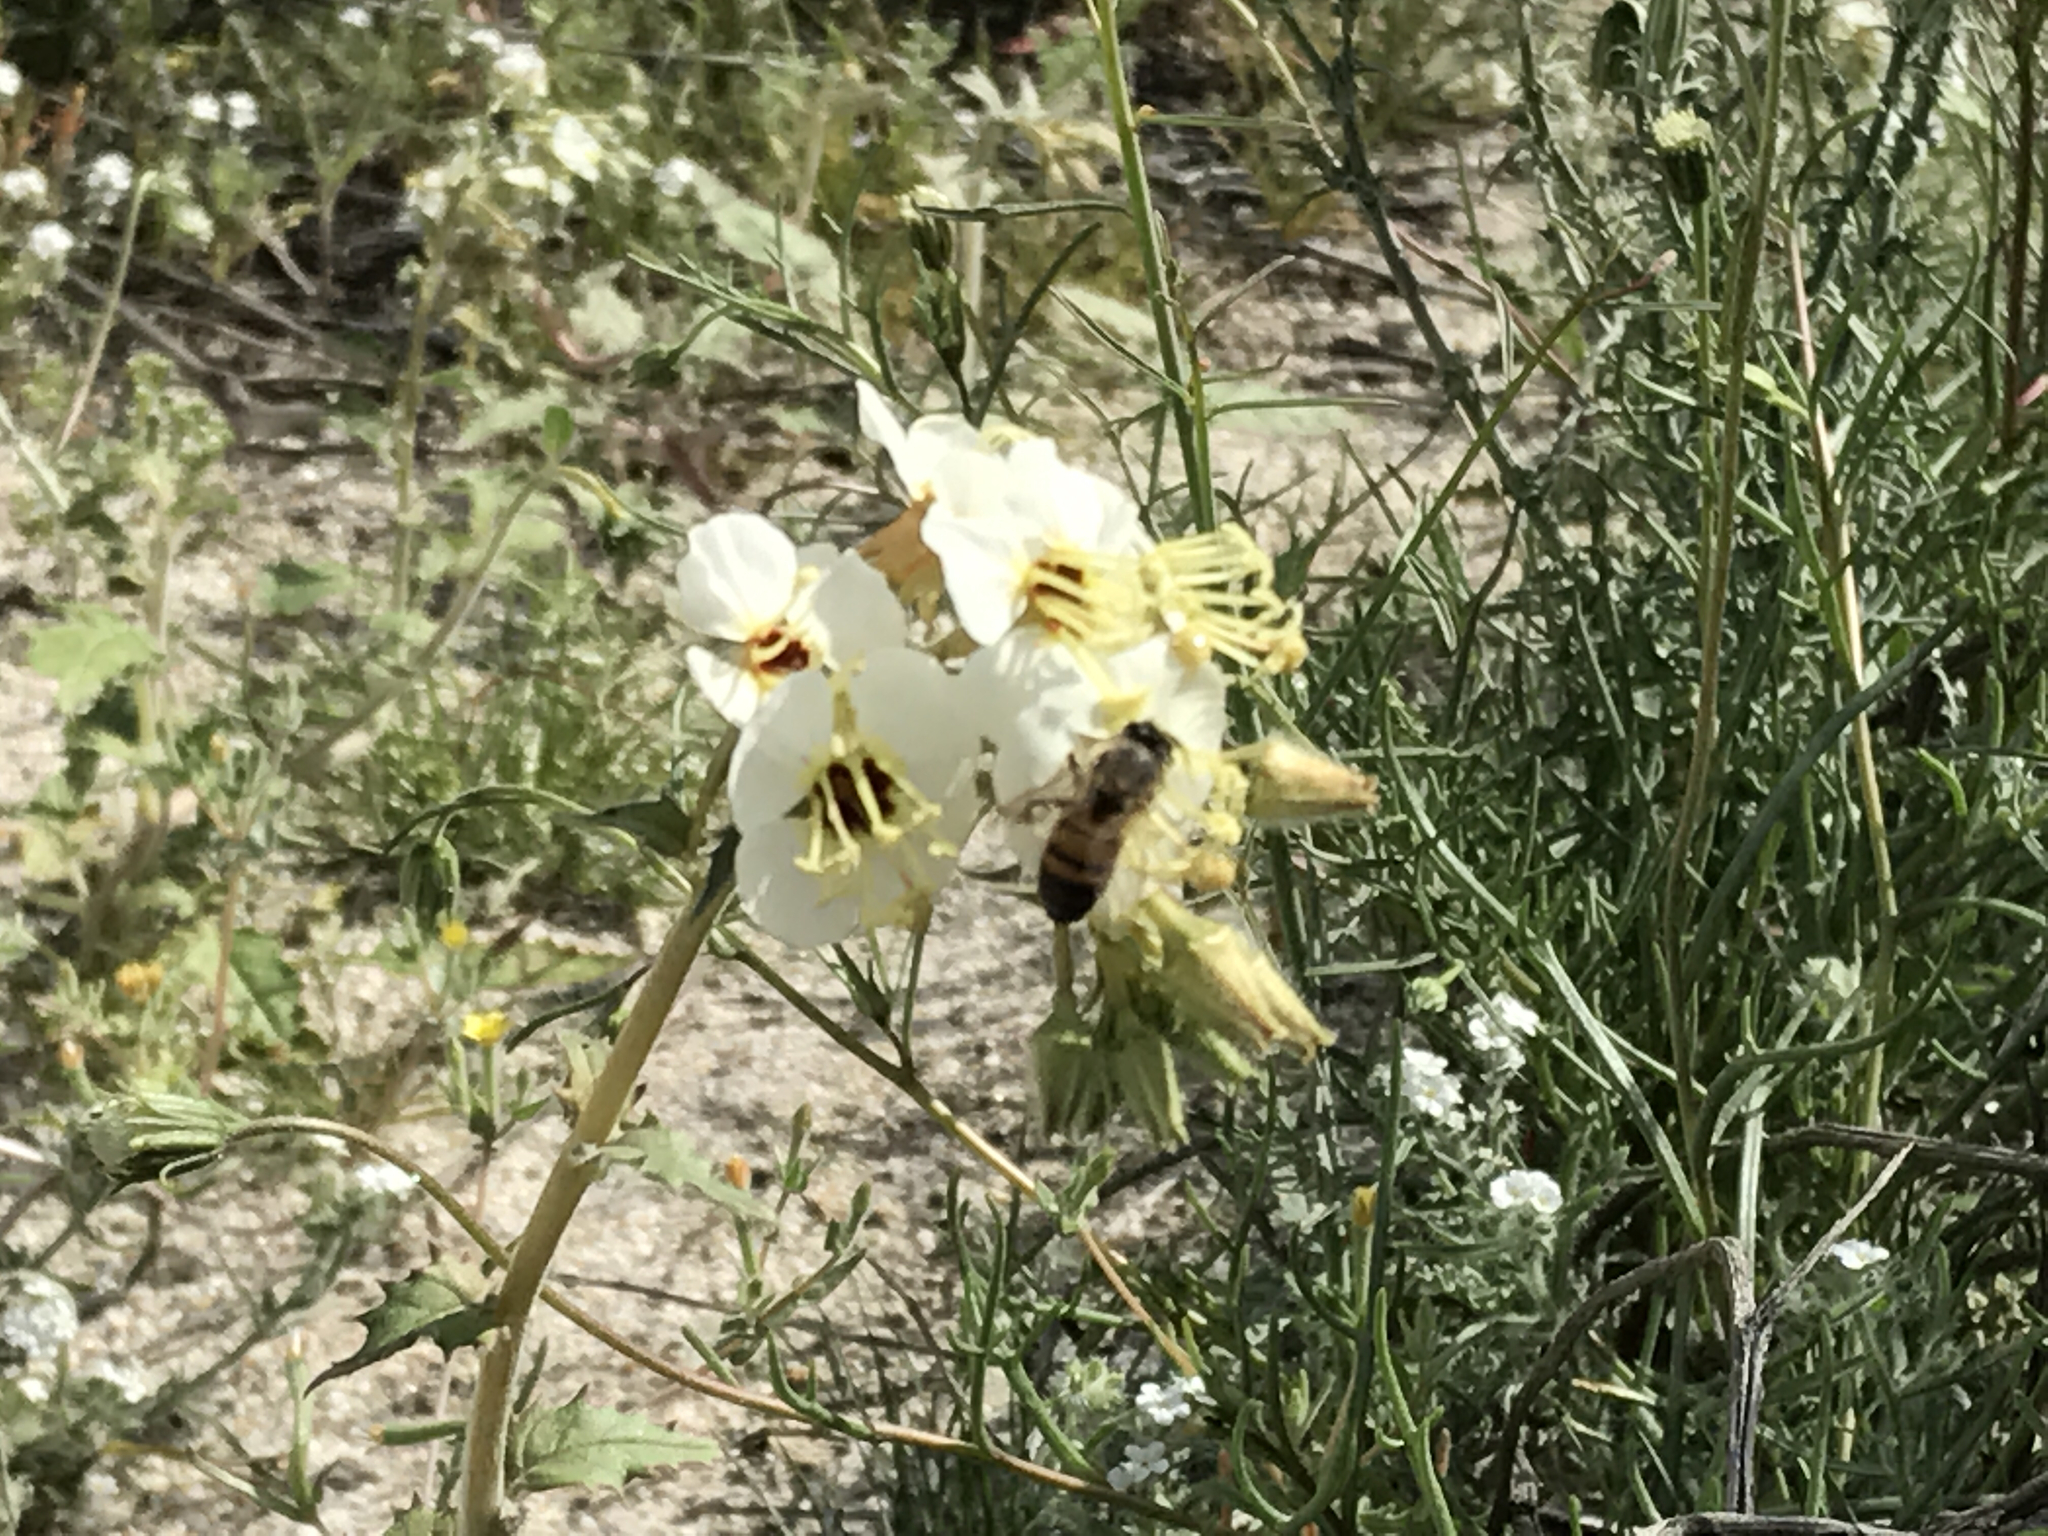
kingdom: Animalia
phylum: Arthropoda
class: Insecta
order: Hymenoptera
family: Apidae
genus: Apis
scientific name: Apis mellifera
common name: Honey bee
